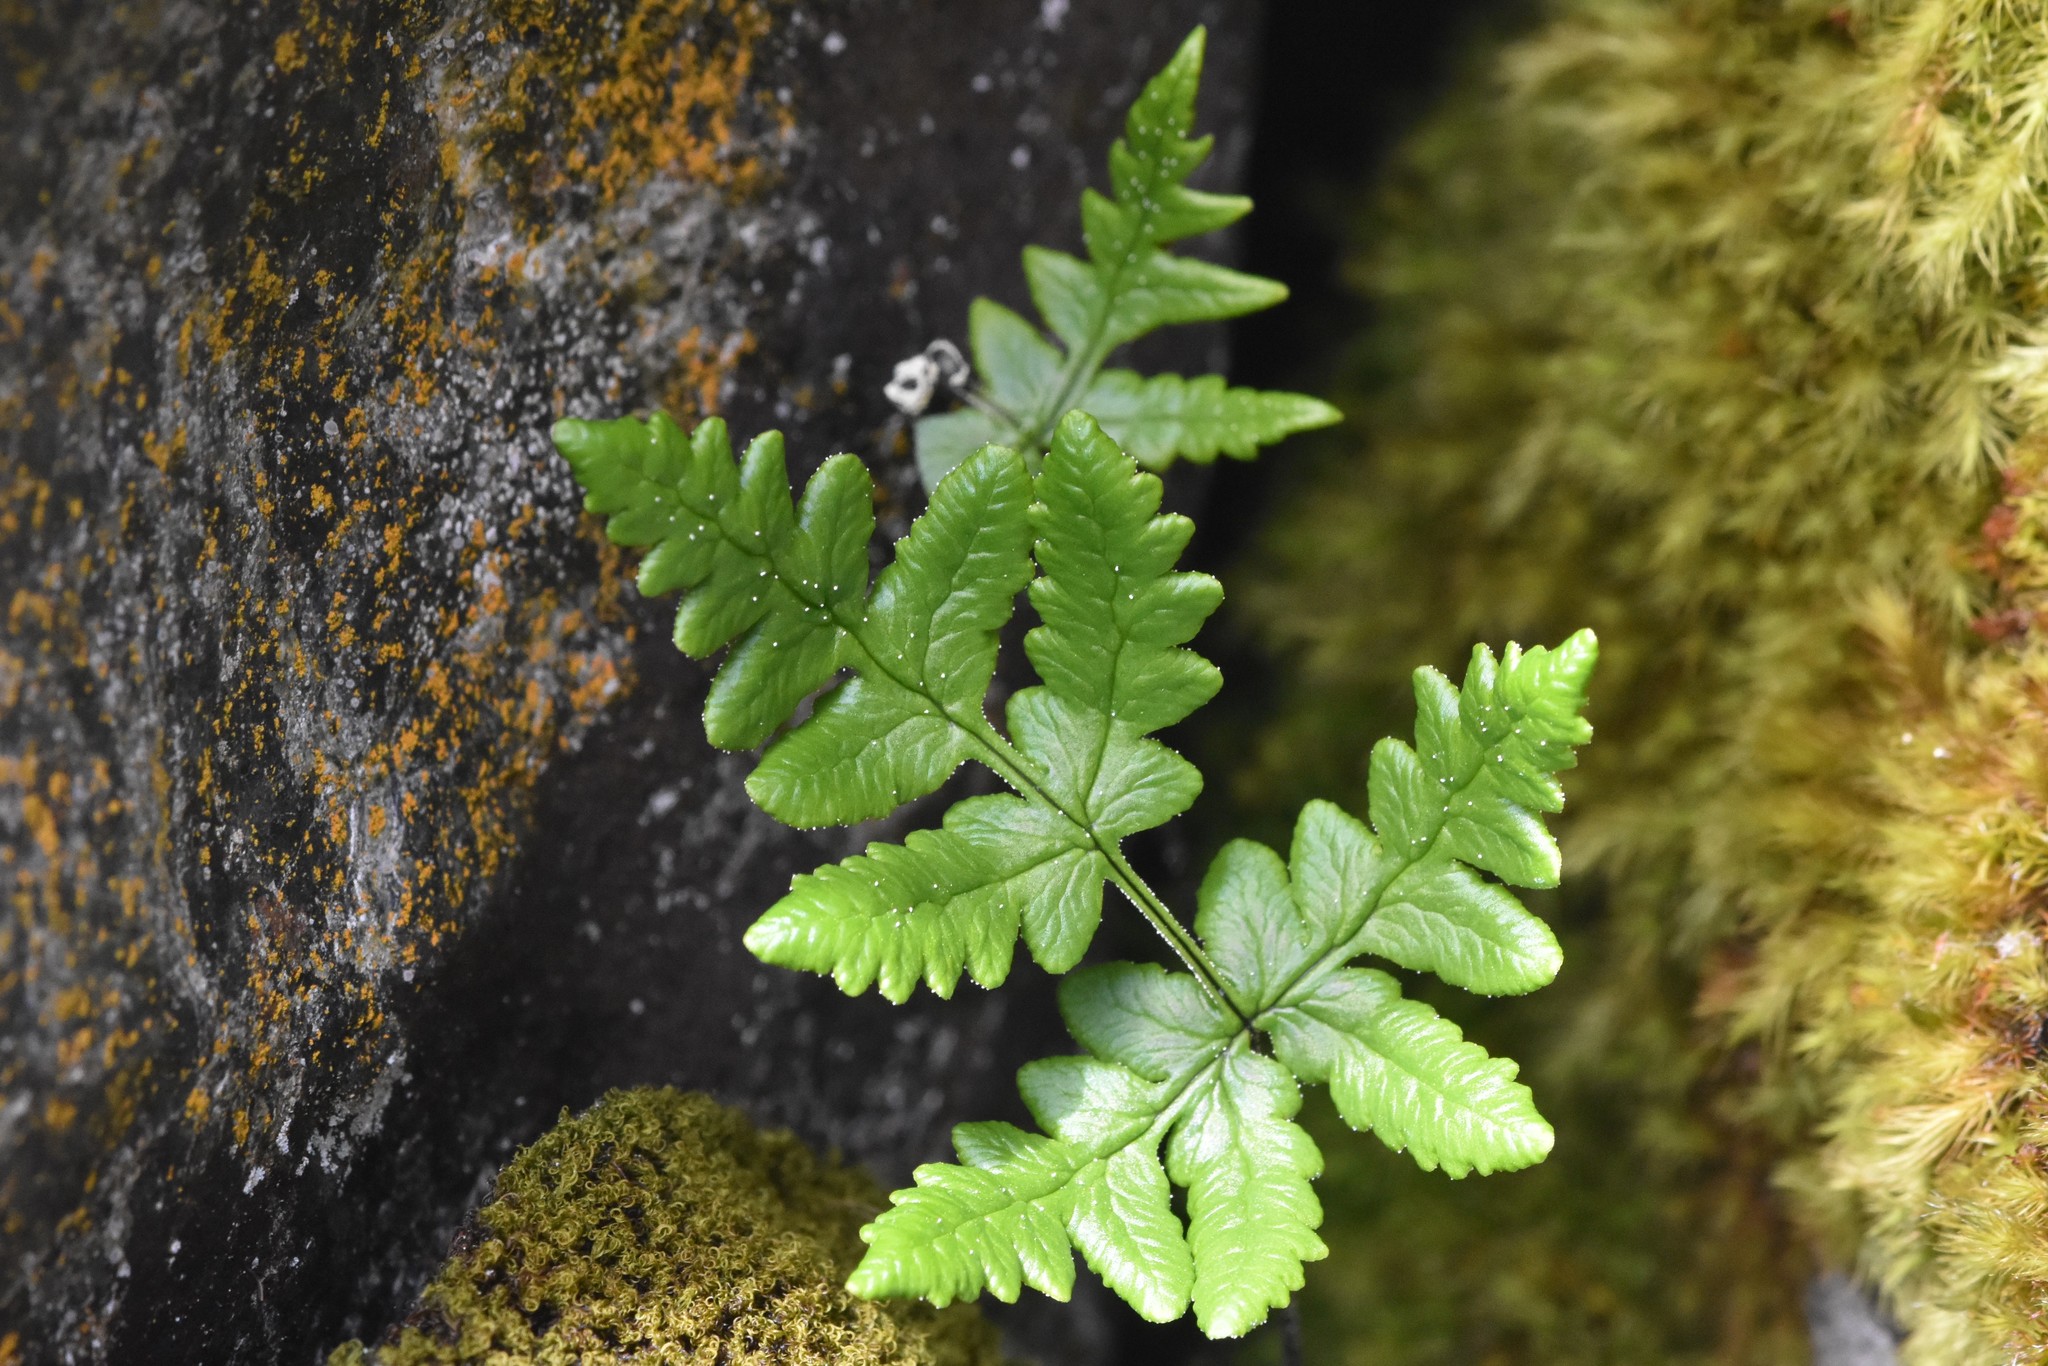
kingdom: Plantae
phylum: Tracheophyta
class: Polypodiopsida
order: Polypodiales
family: Pteridaceae
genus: Pentagramma
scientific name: Pentagramma triangularis
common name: Gold fern
